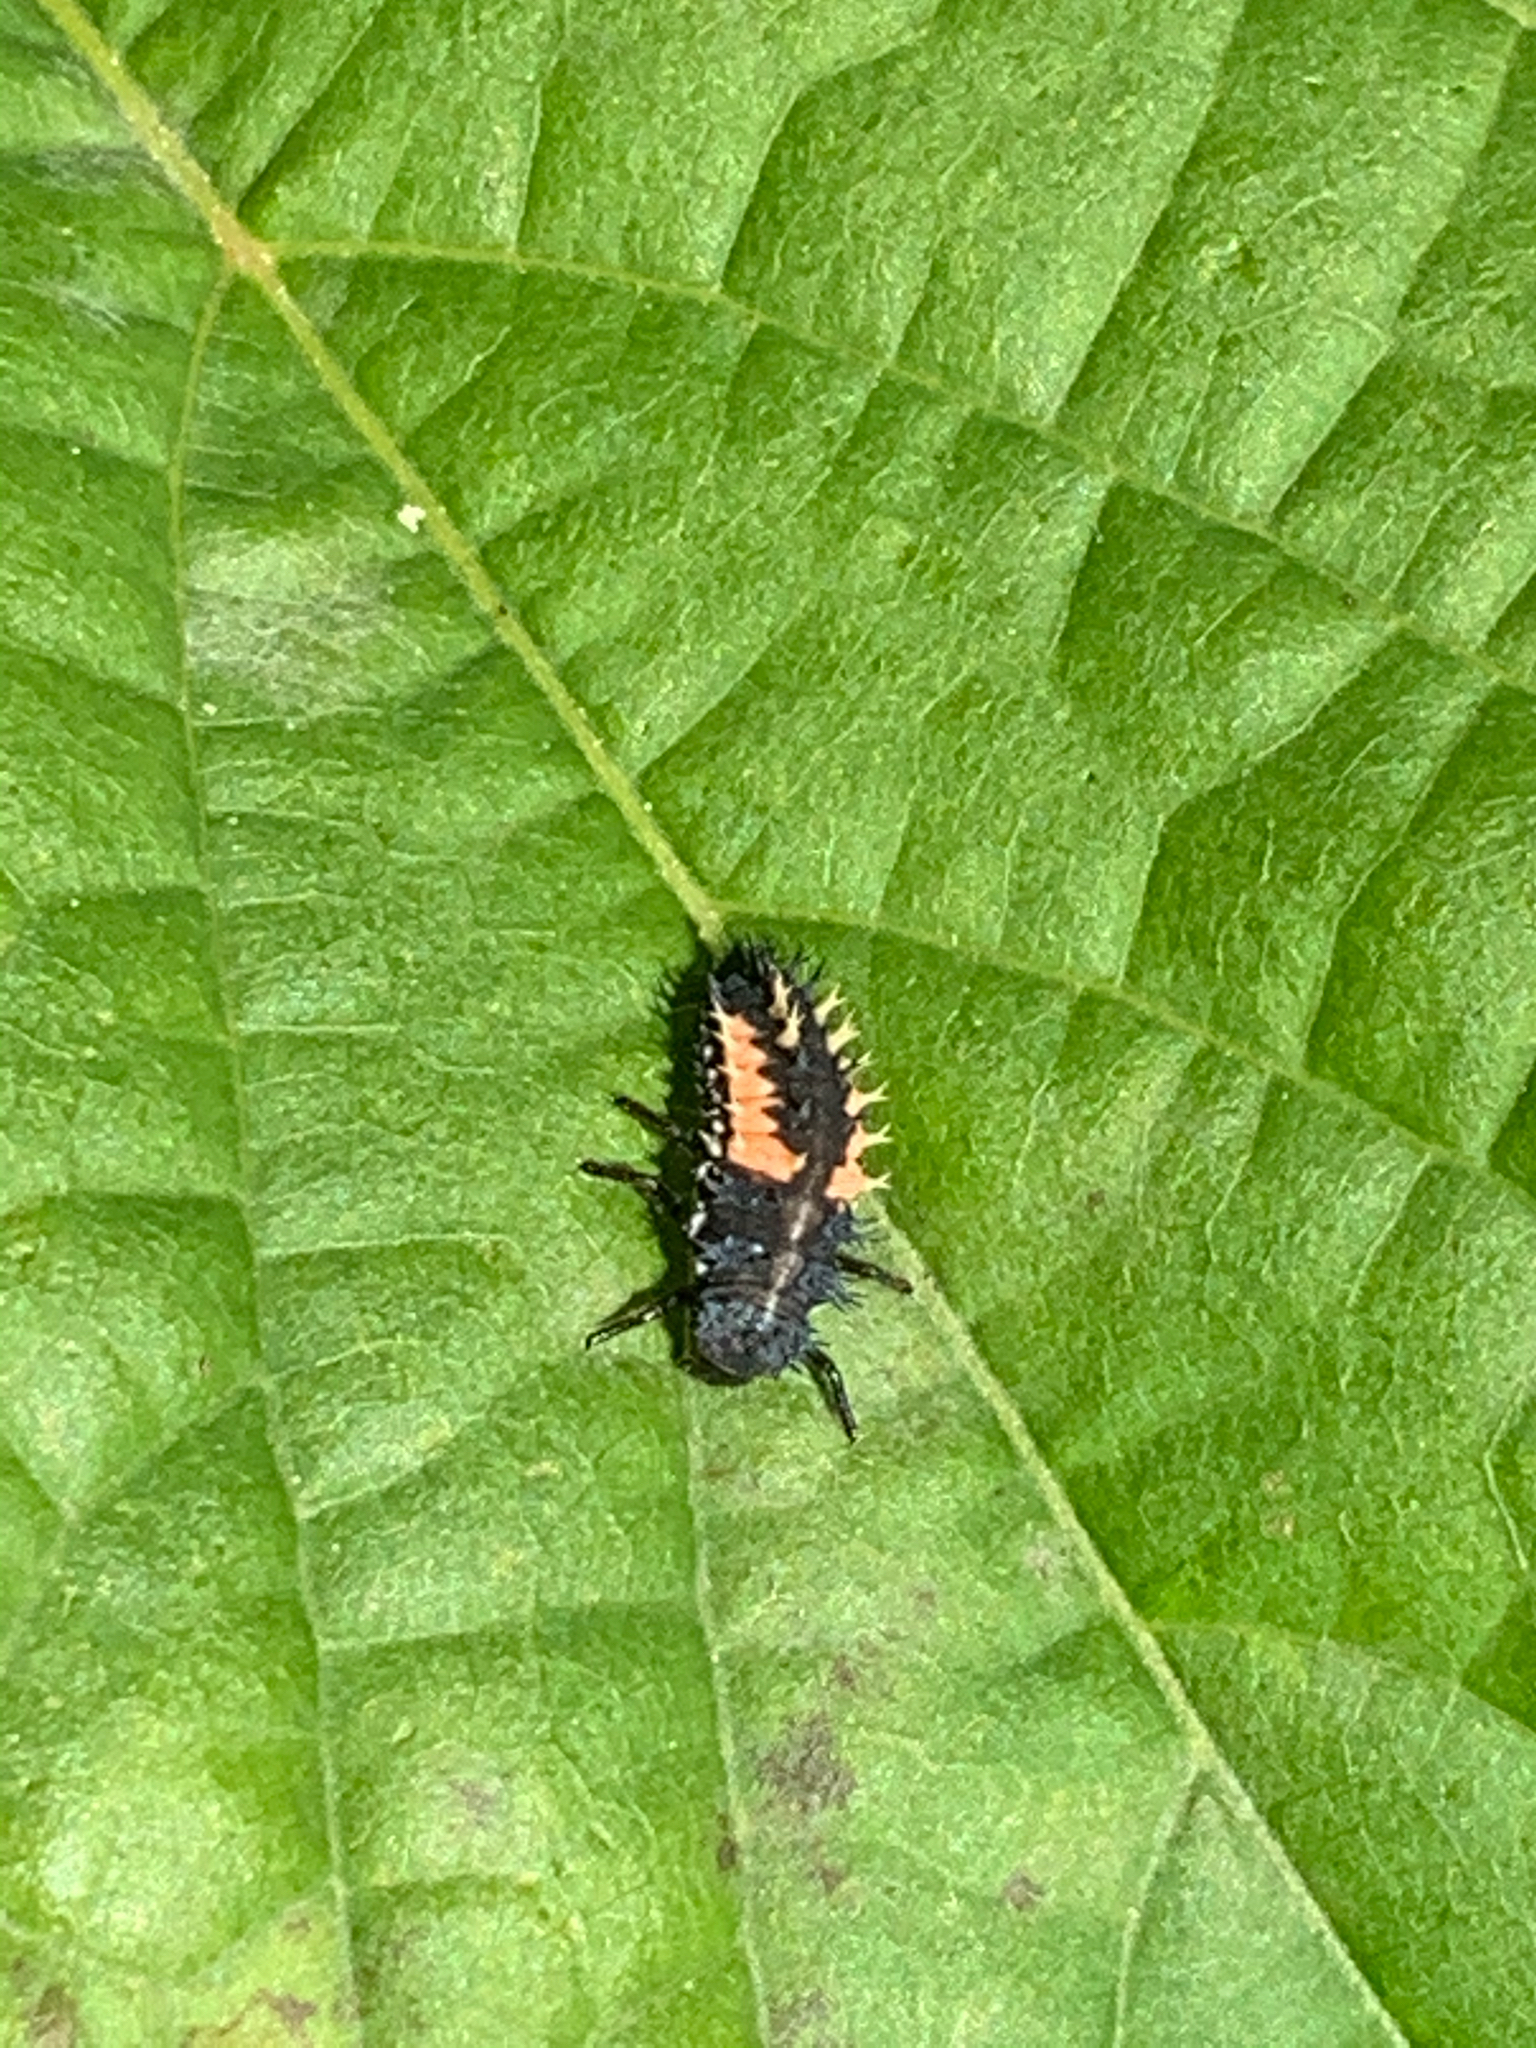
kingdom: Animalia
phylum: Arthropoda
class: Insecta
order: Coleoptera
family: Coccinellidae
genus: Harmonia
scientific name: Harmonia axyridis
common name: Harlequin ladybird
